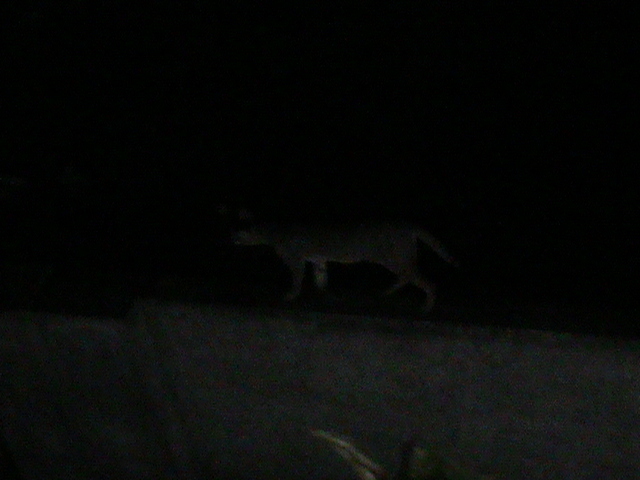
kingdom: Animalia
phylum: Chordata
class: Mammalia
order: Carnivora
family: Felidae
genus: Felis
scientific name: Felis chaus
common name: Jungle cat
